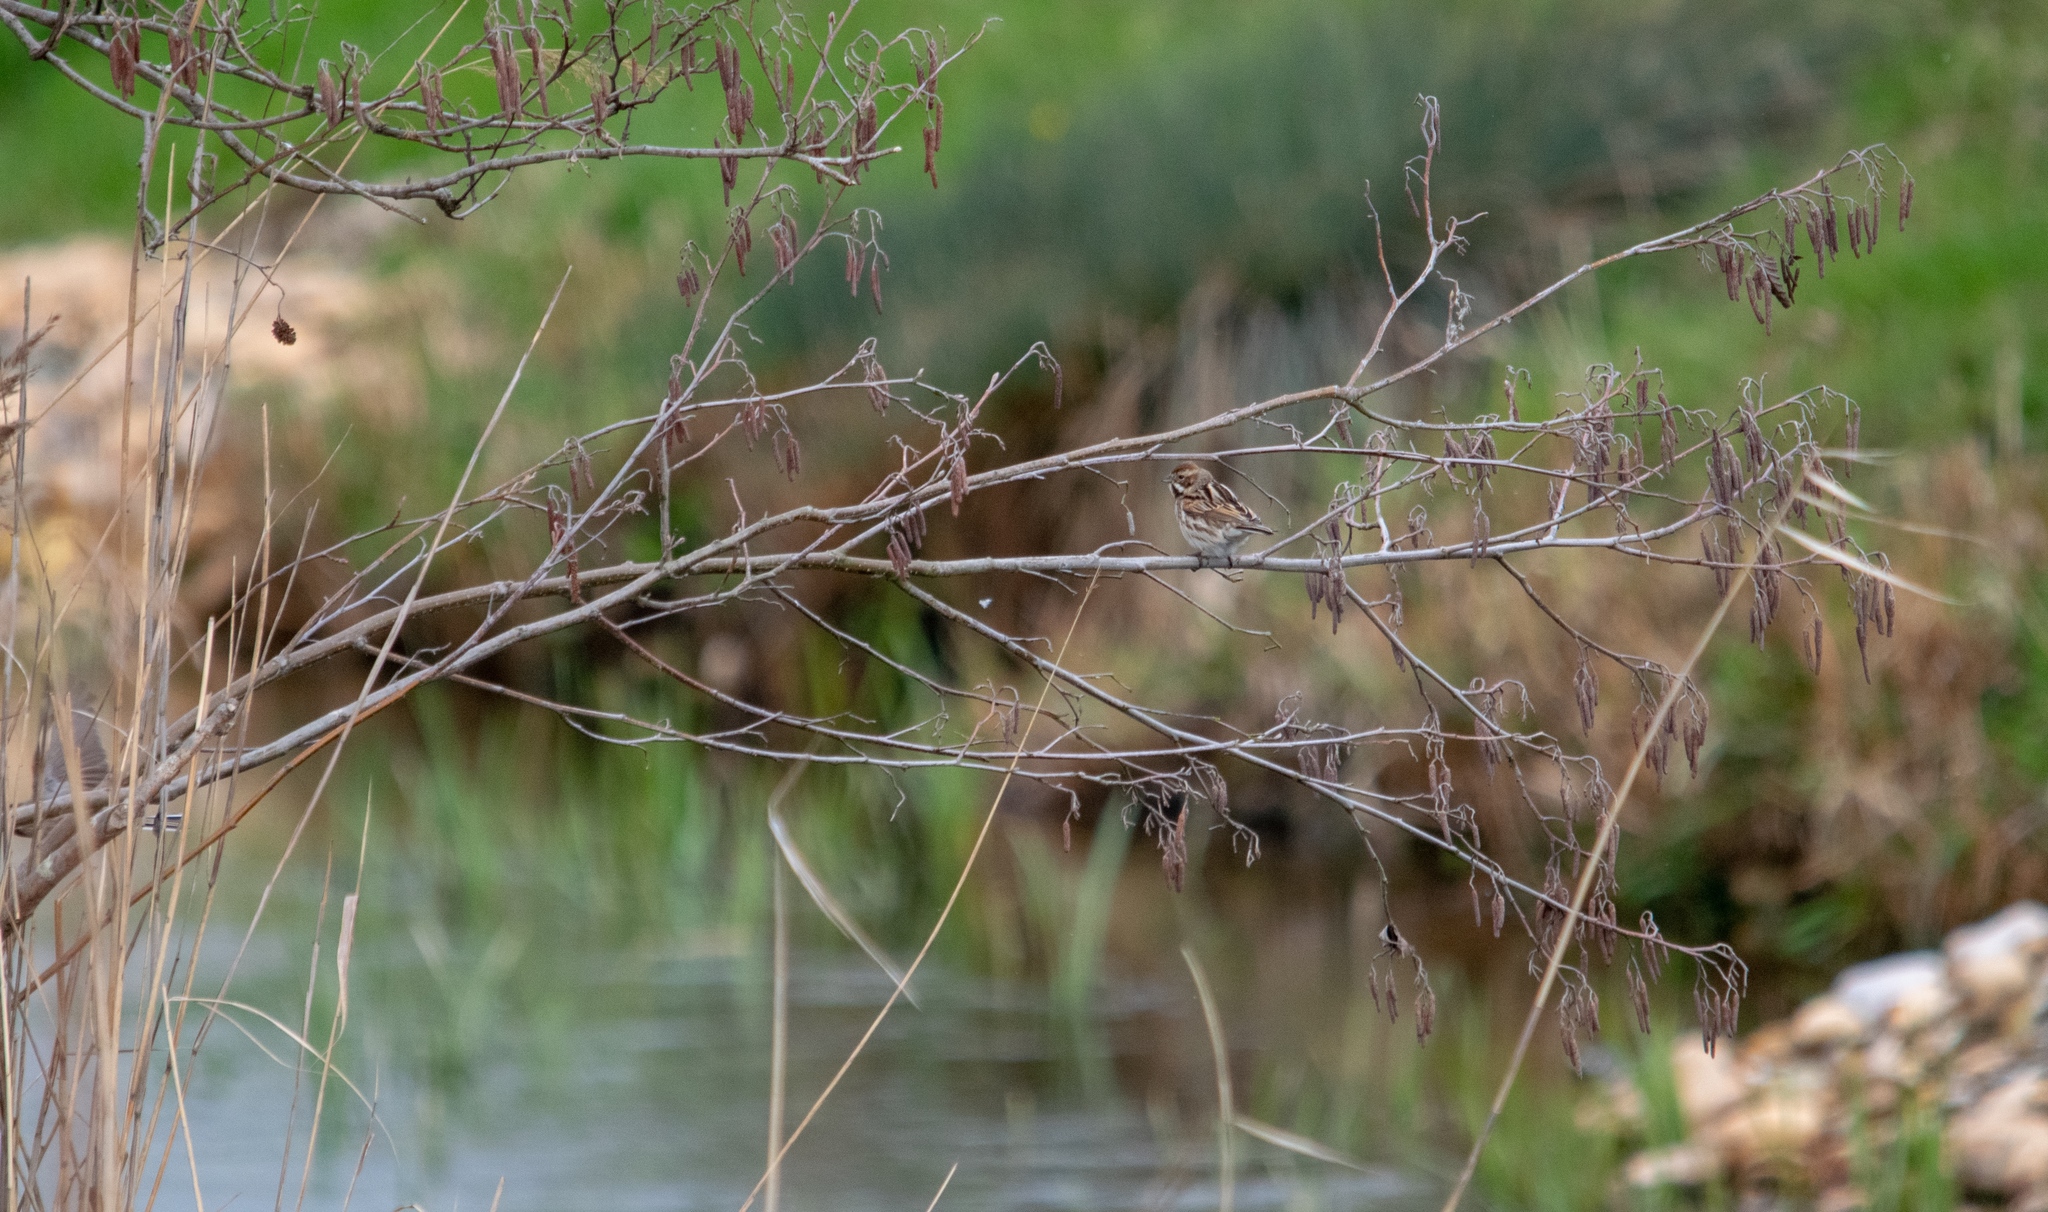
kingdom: Animalia
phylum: Chordata
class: Aves
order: Passeriformes
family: Emberizidae
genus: Emberiza
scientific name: Emberiza schoeniclus
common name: Reed bunting
